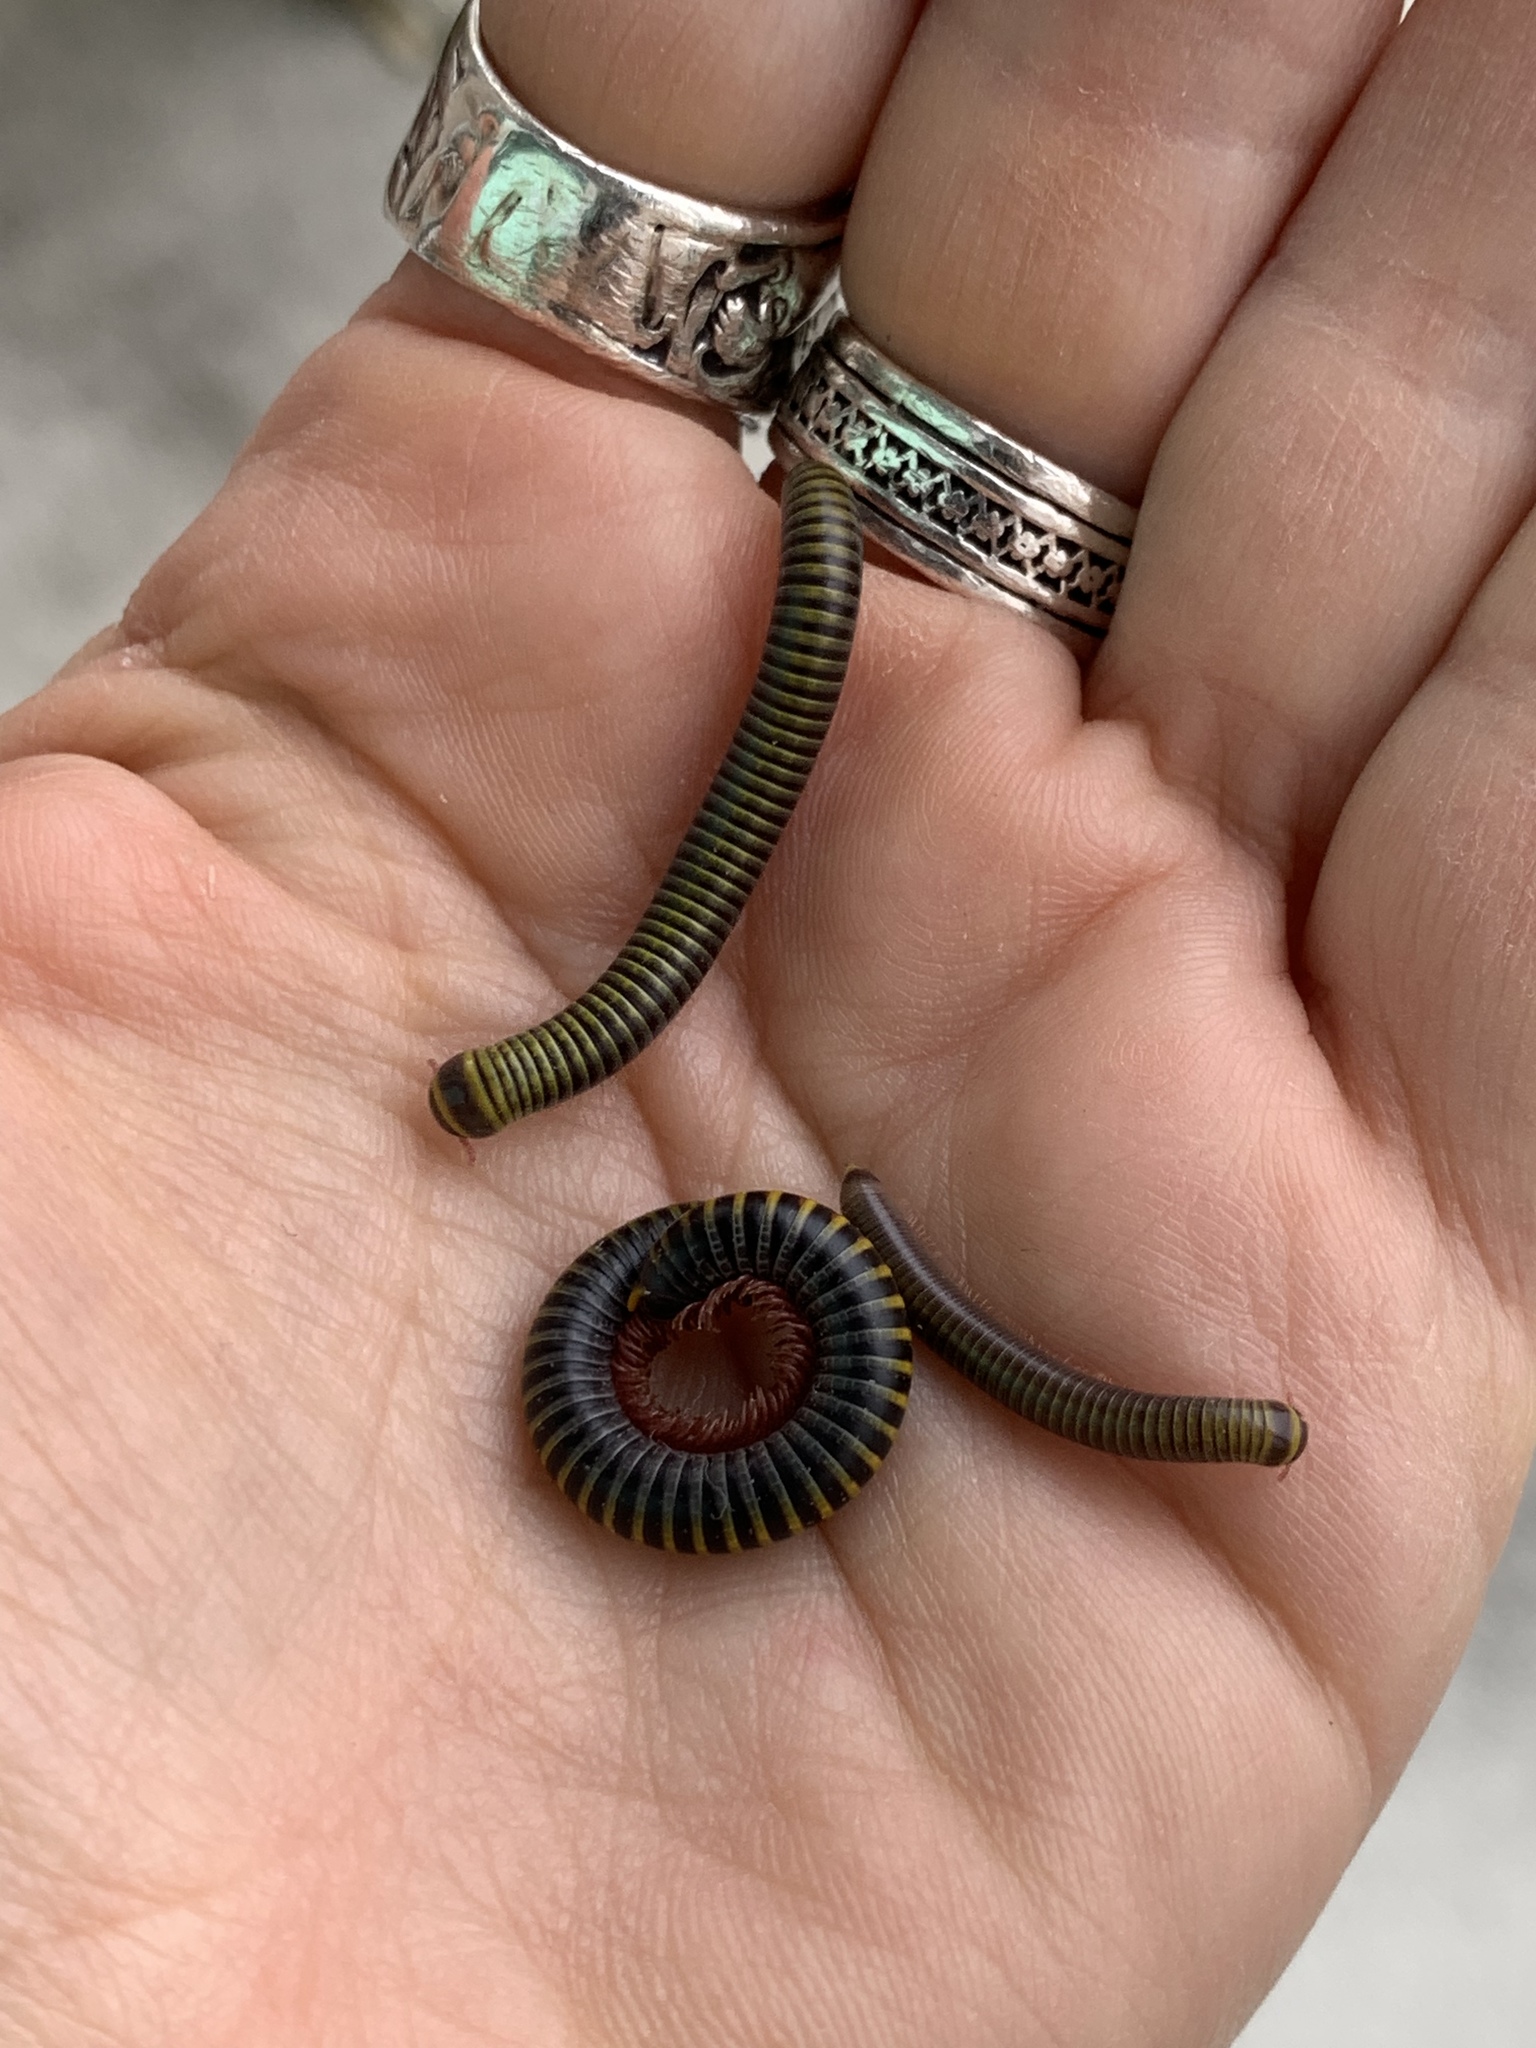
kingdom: Animalia
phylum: Arthropoda
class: Diplopoda
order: Spirobolida
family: Rhinocricidae
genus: Anadenobolus
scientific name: Anadenobolus monilicornis
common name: Caribbean millipede
